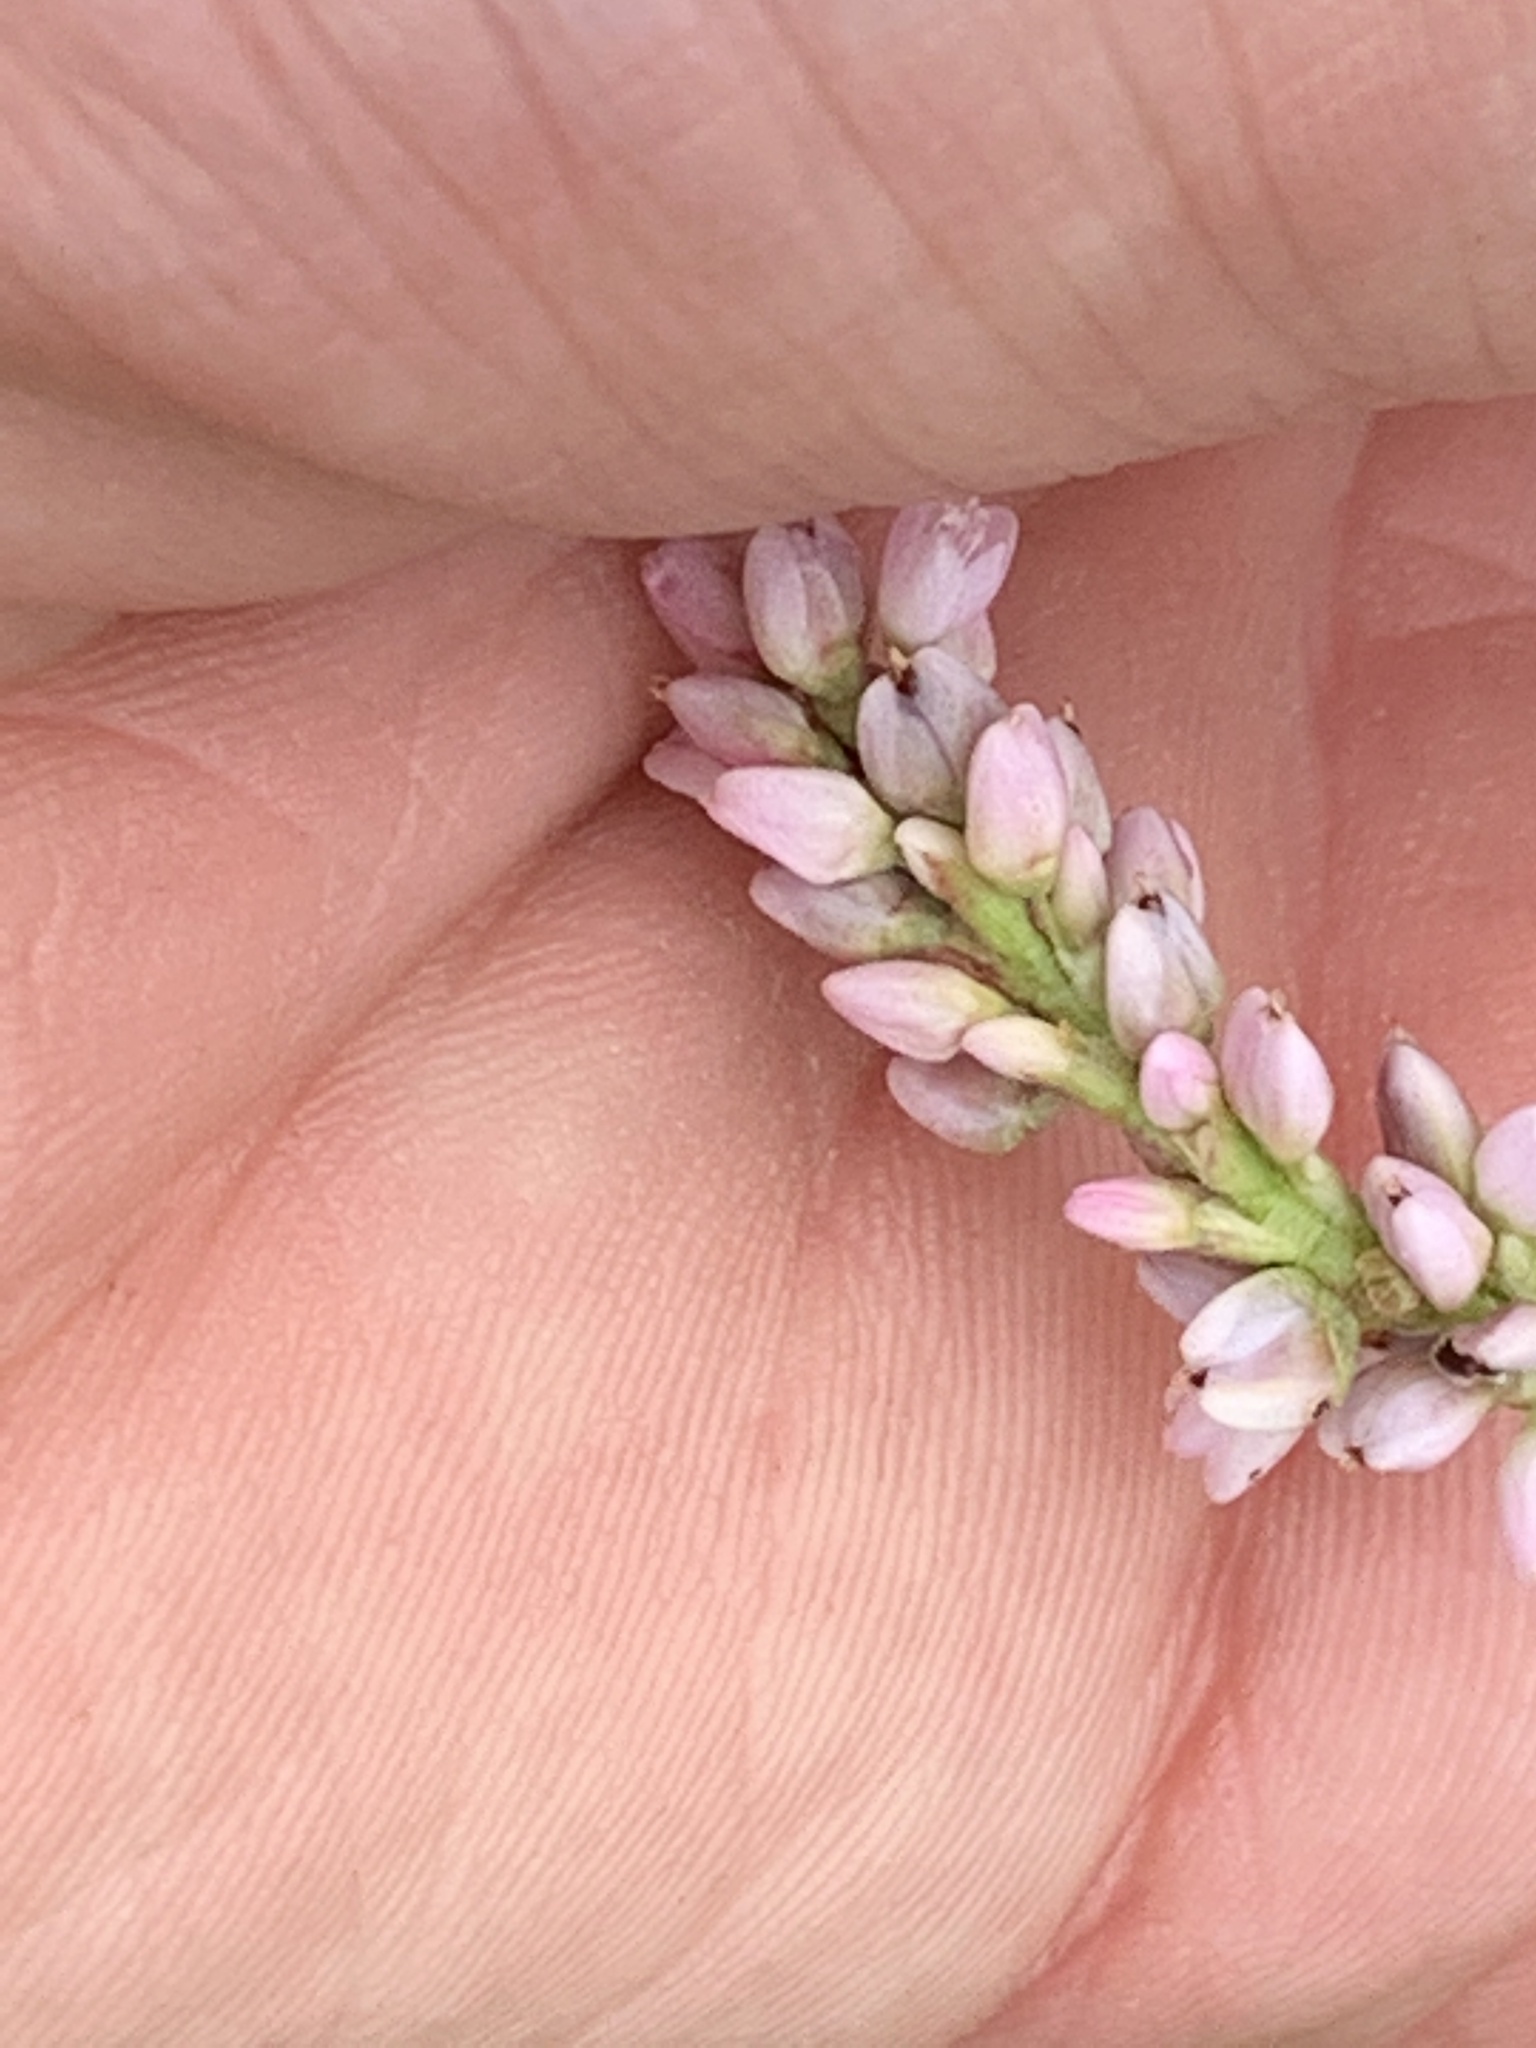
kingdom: Plantae
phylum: Tracheophyta
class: Magnoliopsida
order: Caryophyllales
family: Polygonaceae
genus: Persicaria
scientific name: Persicaria pensylvanica
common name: Pinkweed
